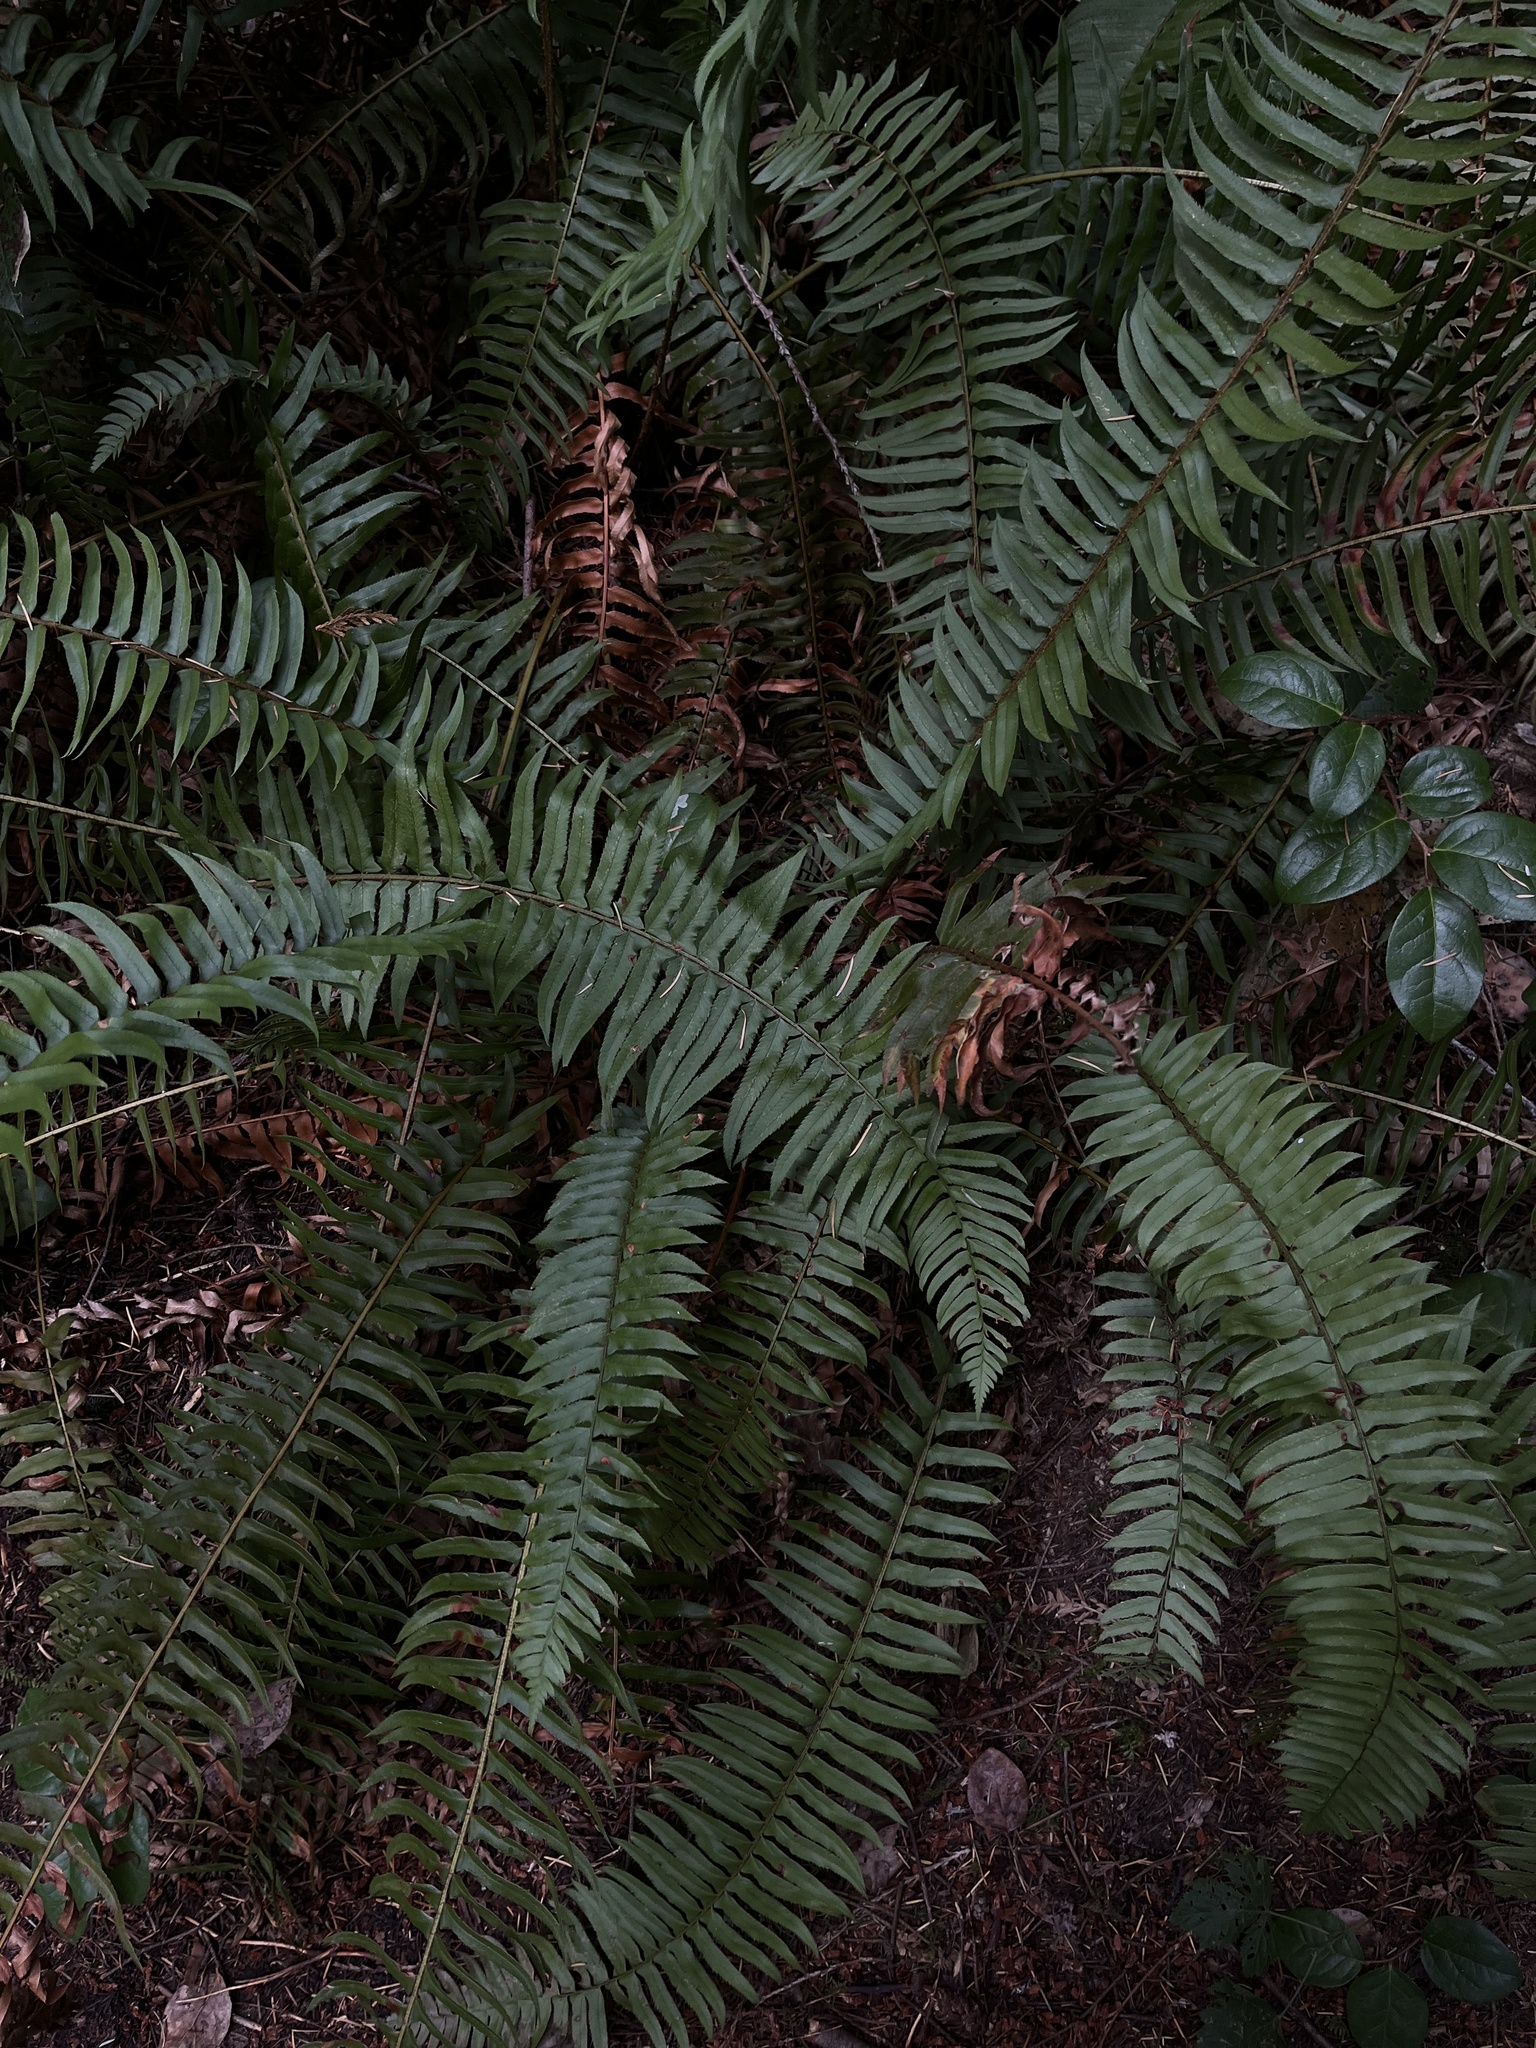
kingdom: Plantae
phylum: Tracheophyta
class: Polypodiopsida
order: Polypodiales
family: Dryopteridaceae
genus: Polystichum
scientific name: Polystichum munitum
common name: Western sword-fern
